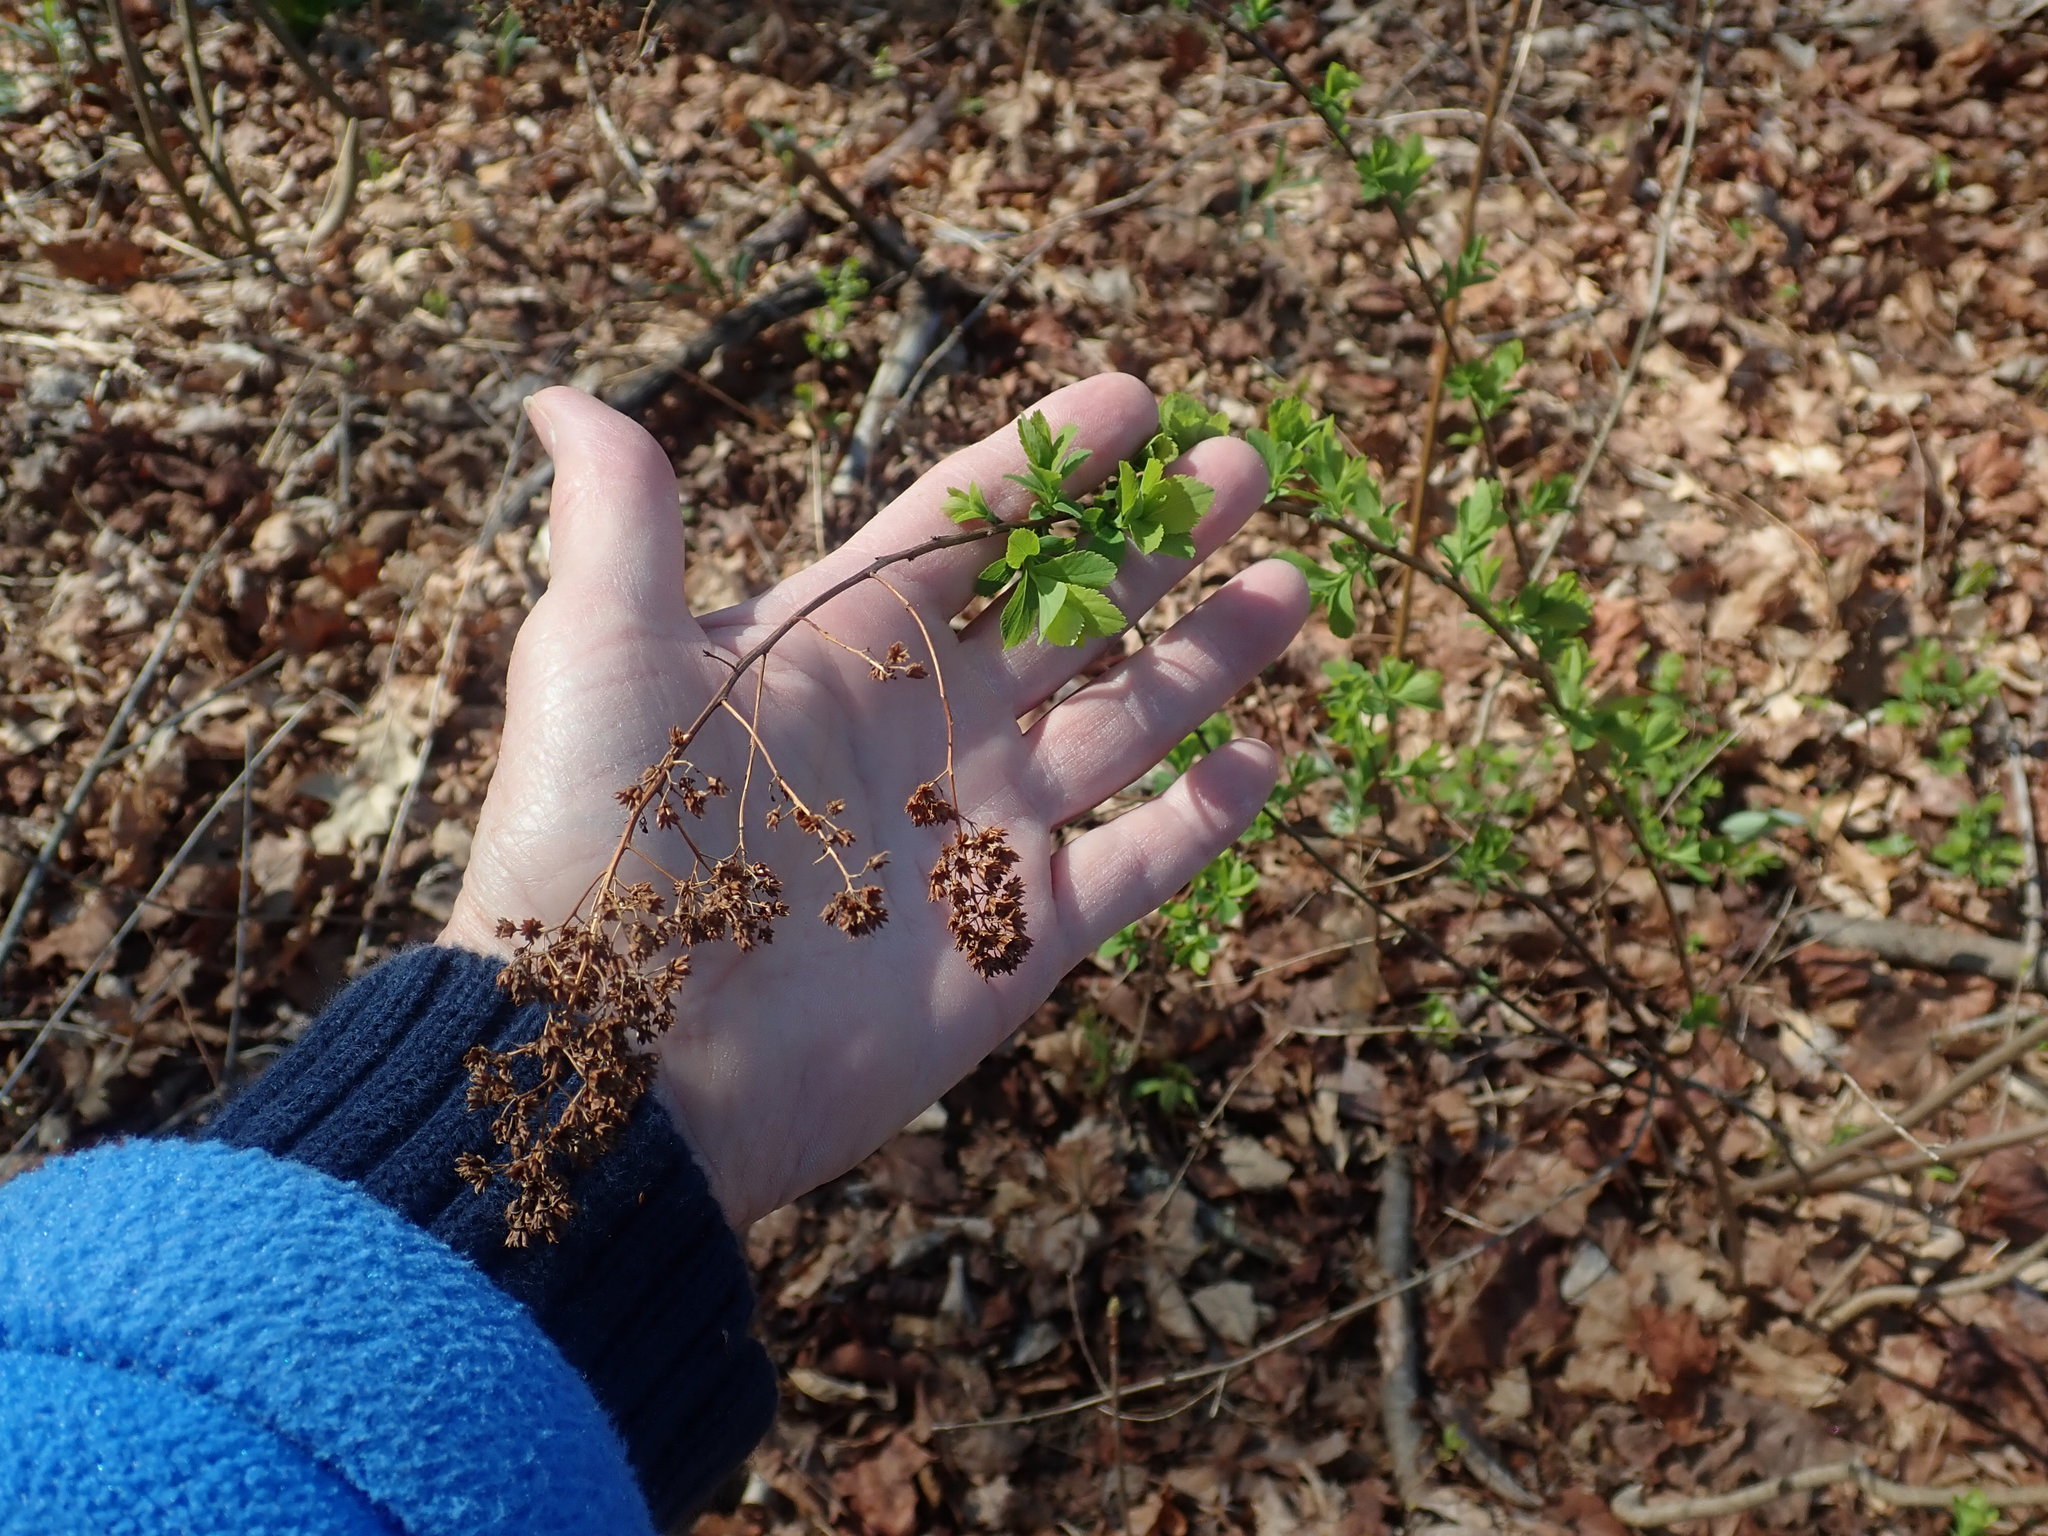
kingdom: Plantae
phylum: Tracheophyta
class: Magnoliopsida
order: Rosales
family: Rosaceae
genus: Spiraea
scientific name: Spiraea alba
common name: Pale bridewort
